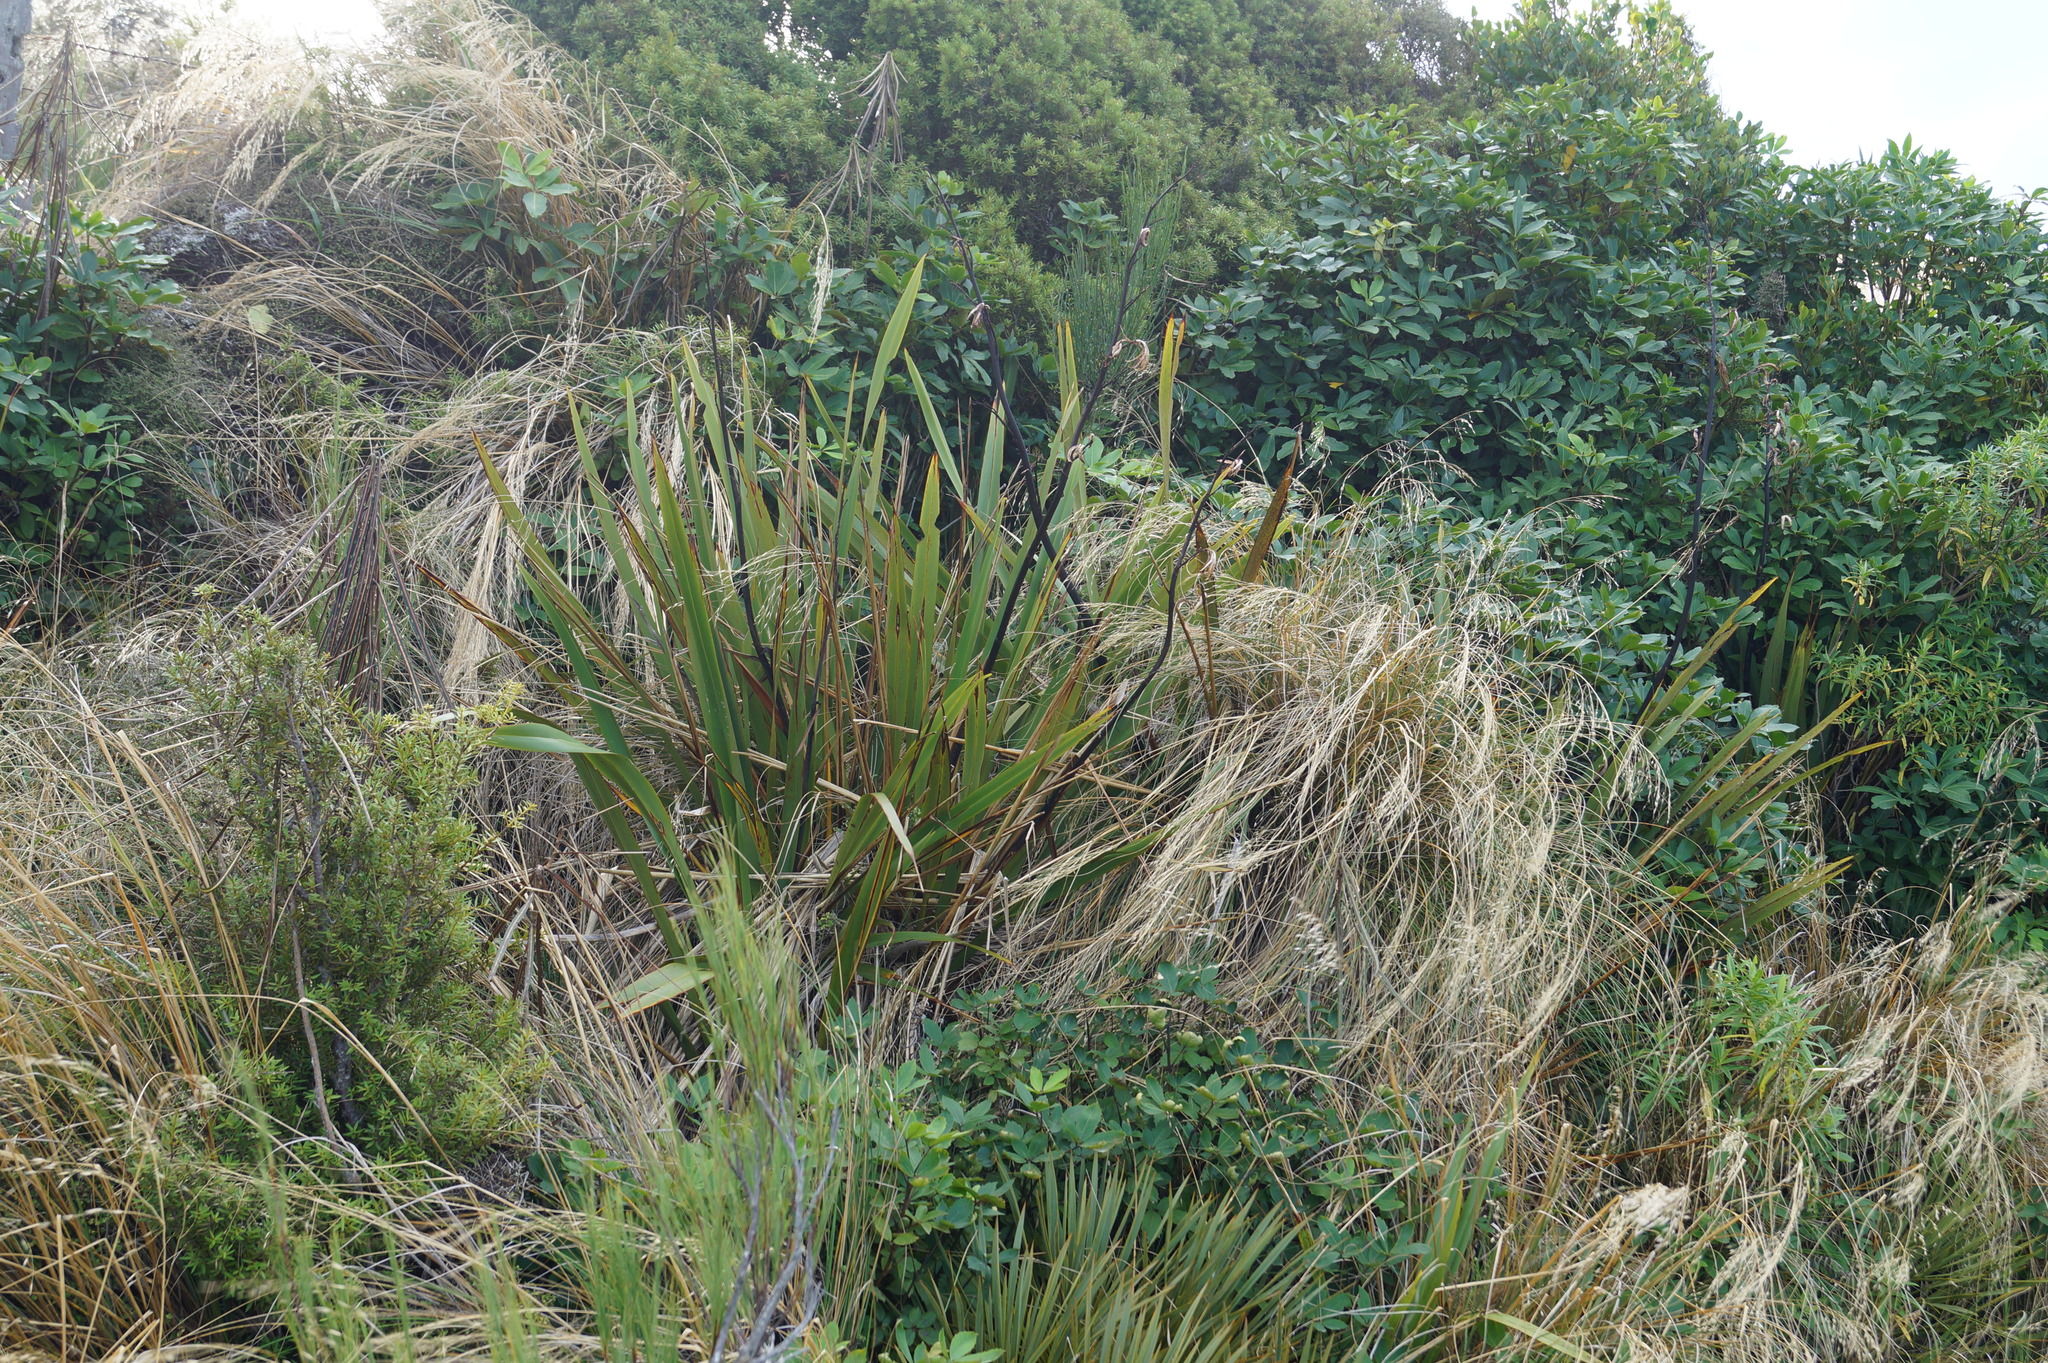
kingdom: Plantae
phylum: Tracheophyta
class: Liliopsida
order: Asparagales
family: Asphodelaceae
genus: Phormium
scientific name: Phormium colensoi
